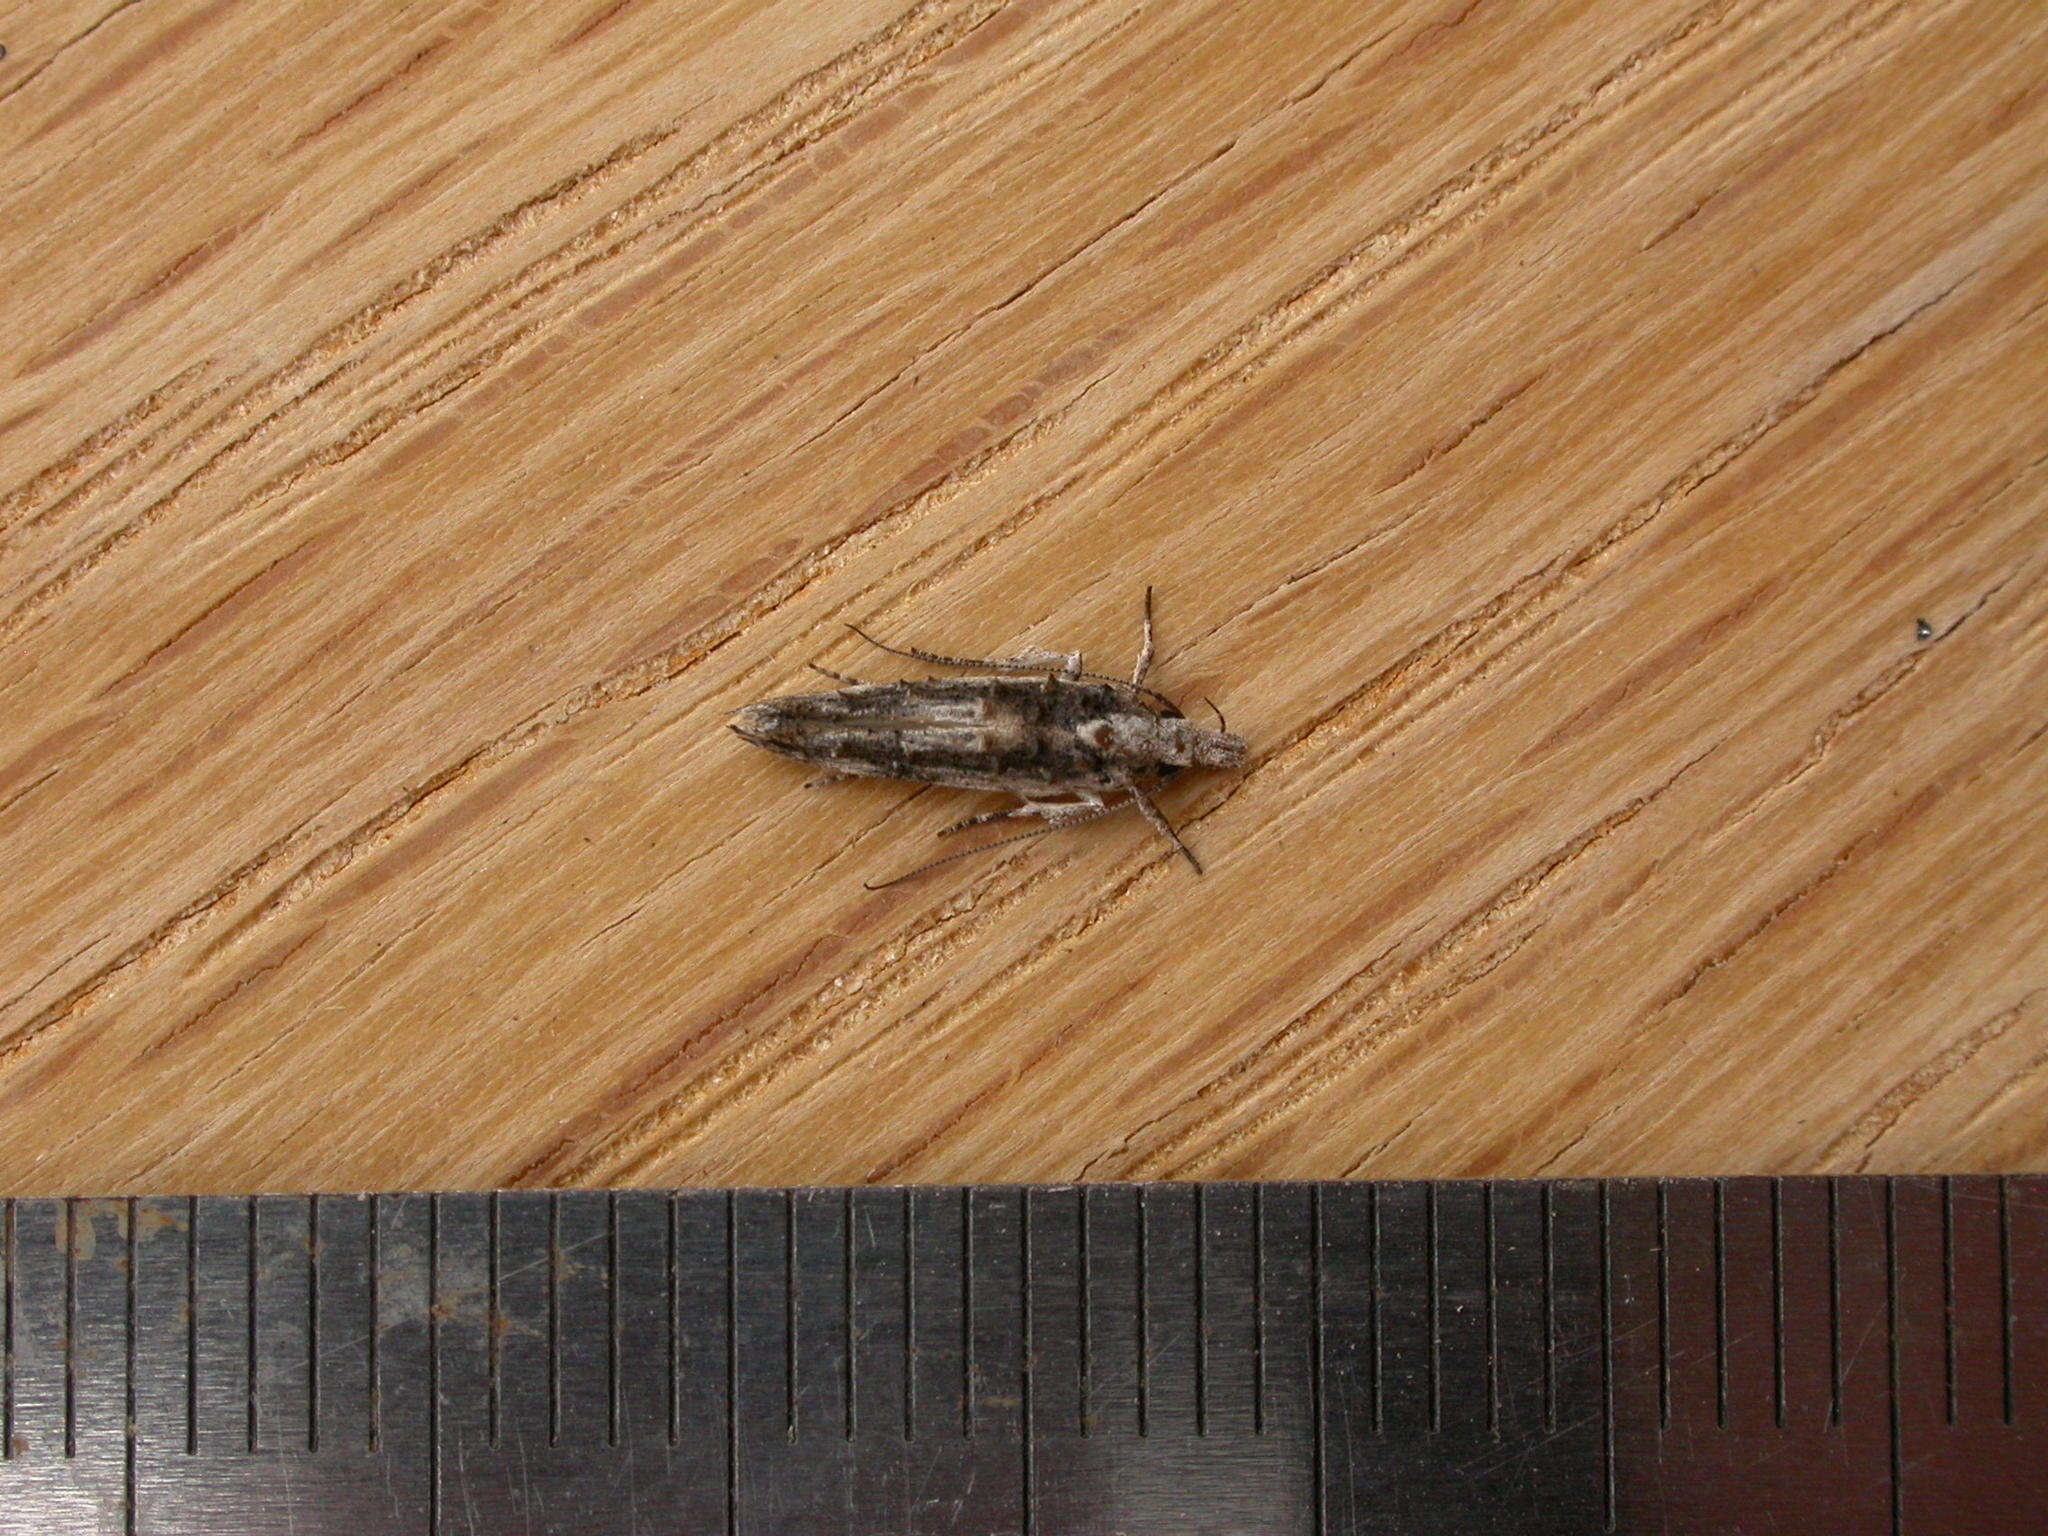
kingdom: Animalia
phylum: Arthropoda
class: Insecta
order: Lepidoptera
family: Elachistidae
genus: Trachydora
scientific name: Trachydora musaea
